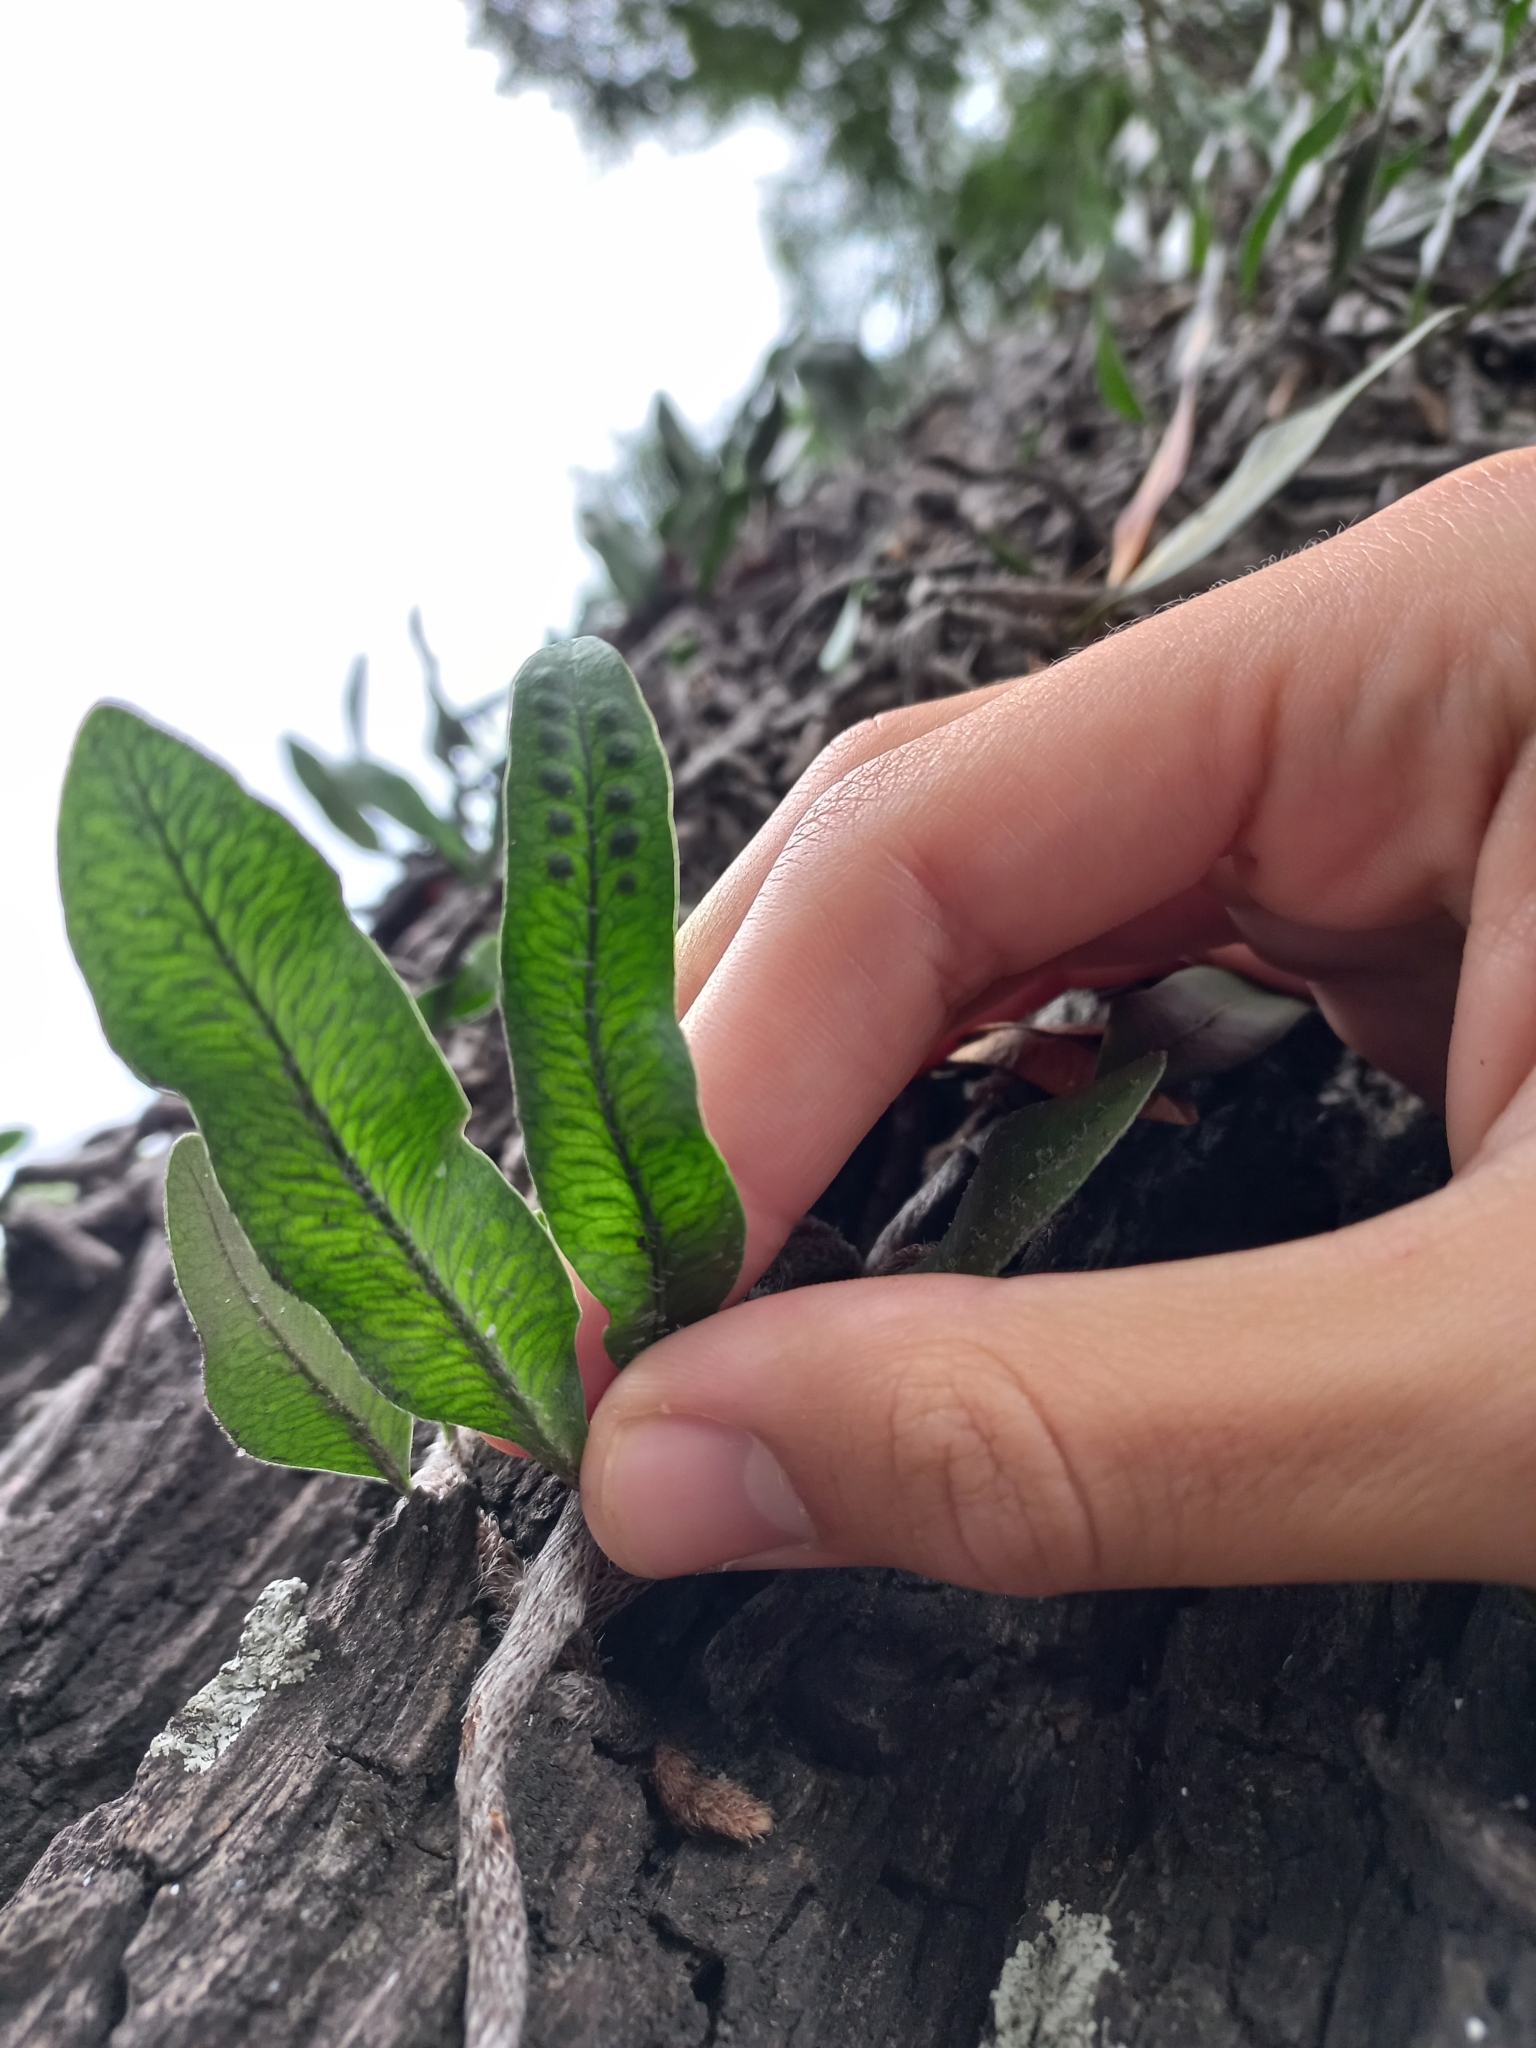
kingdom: Plantae
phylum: Tracheophyta
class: Polypodiopsida
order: Polypodiales
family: Polypodiaceae
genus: Microgramma
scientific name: Microgramma mortoniana
